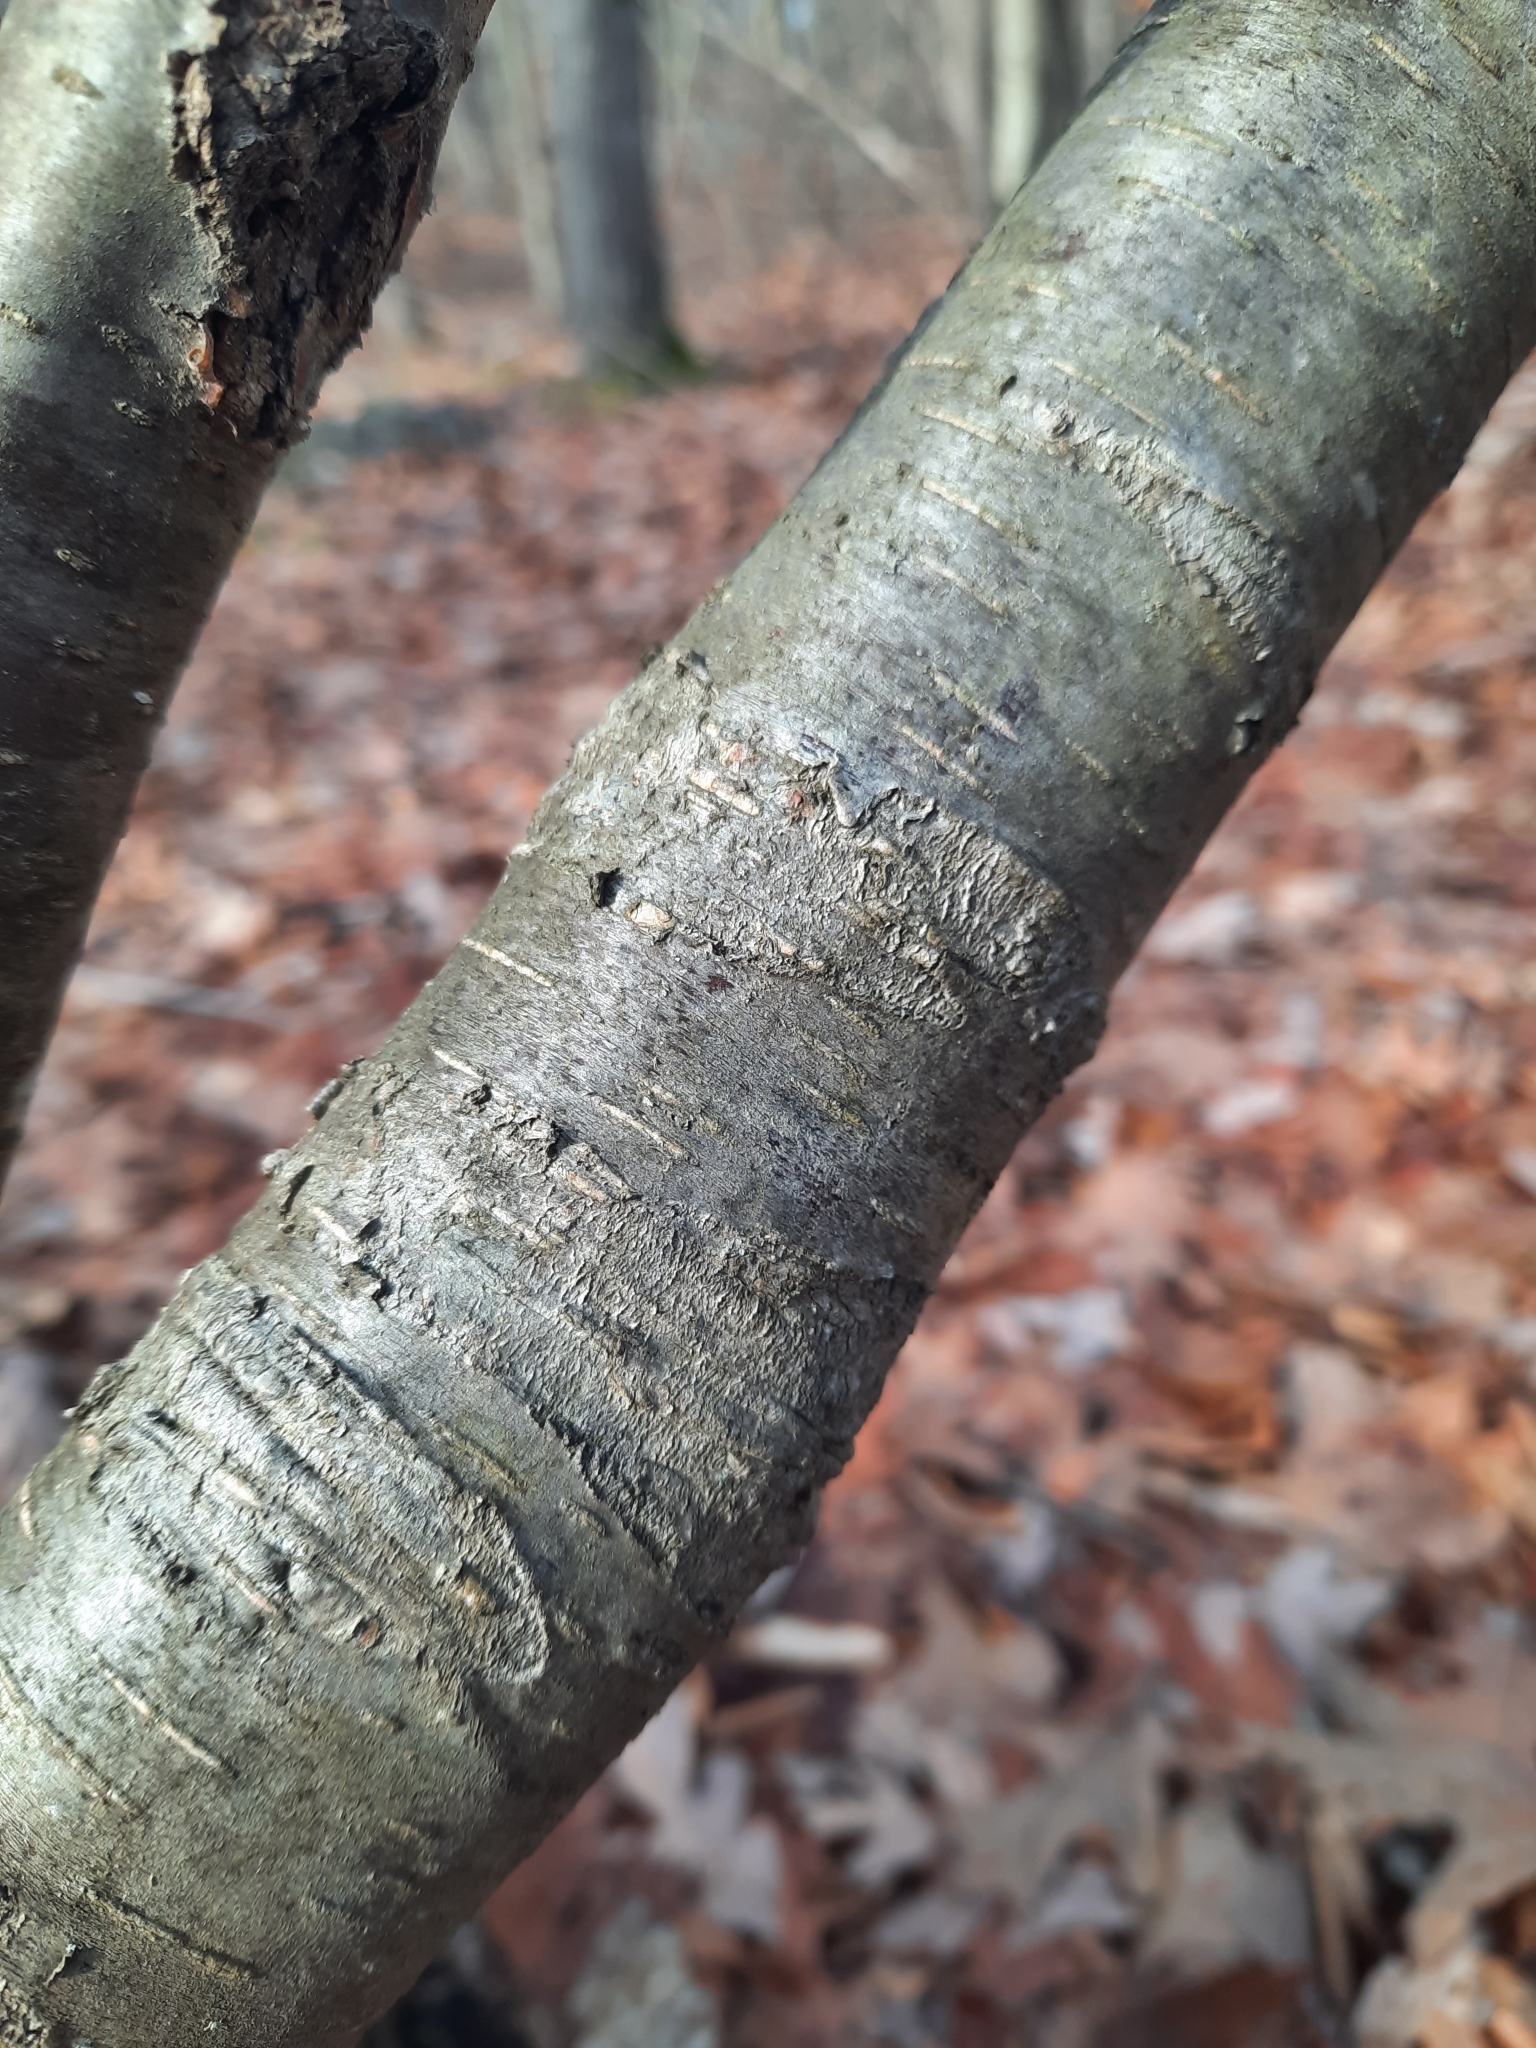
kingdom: Plantae
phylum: Tracheophyta
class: Magnoliopsida
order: Fagales
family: Betulaceae
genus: Betula
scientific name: Betula lenta
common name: Black birch
